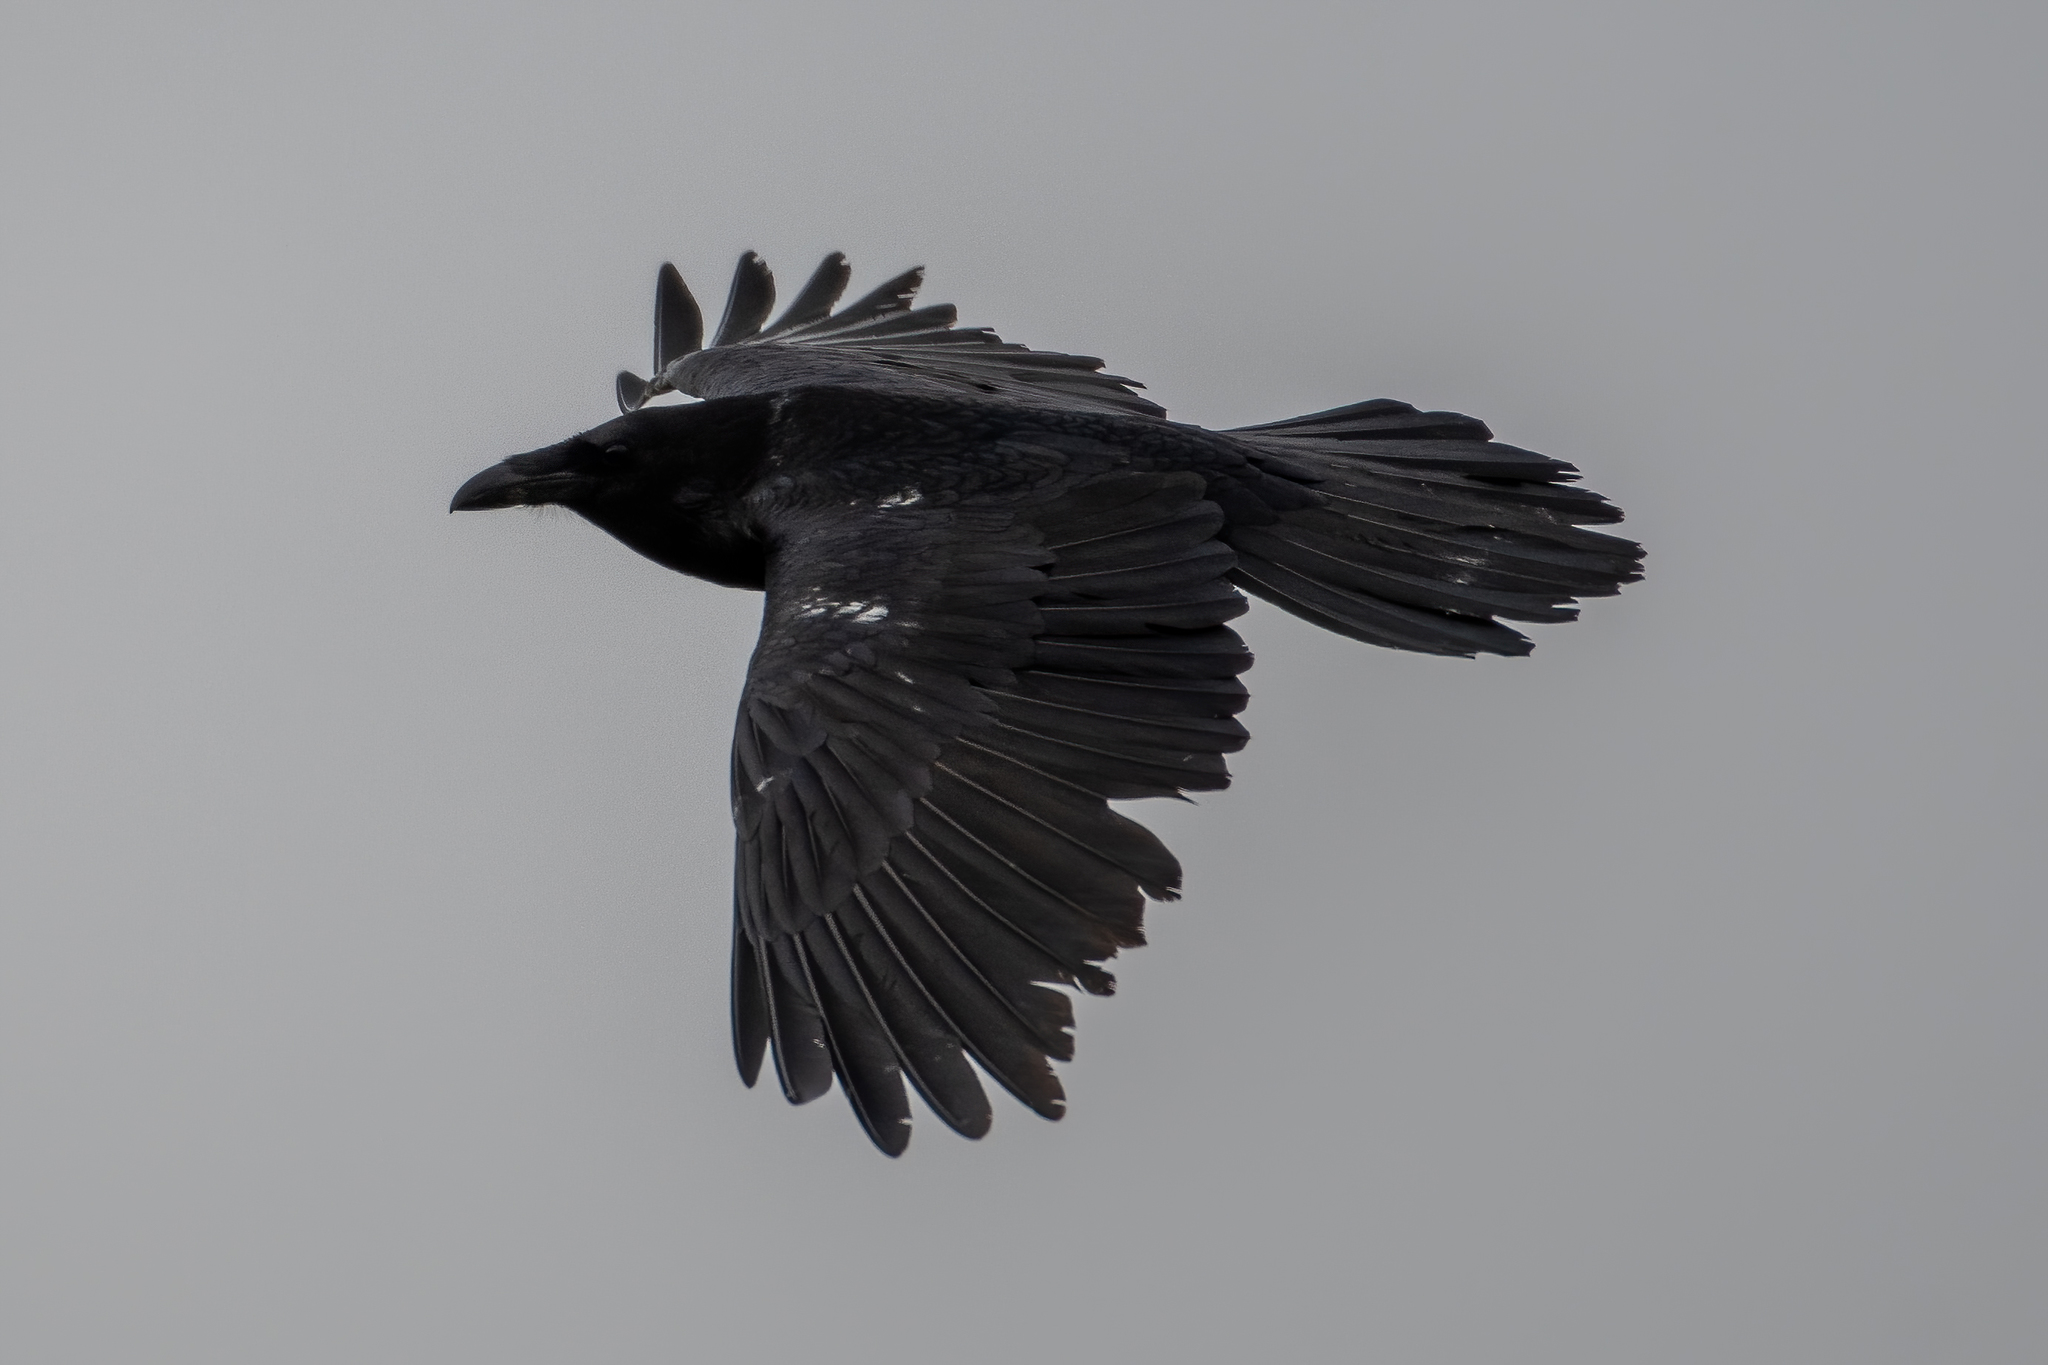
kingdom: Animalia
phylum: Chordata
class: Aves
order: Passeriformes
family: Corvidae
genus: Corvus
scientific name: Corvus corax
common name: Common raven
